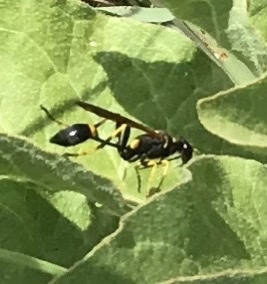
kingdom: Animalia
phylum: Arthropoda
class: Insecta
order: Hymenoptera
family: Sphecidae
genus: Sceliphron
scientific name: Sceliphron caementarium
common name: Mud dauber
